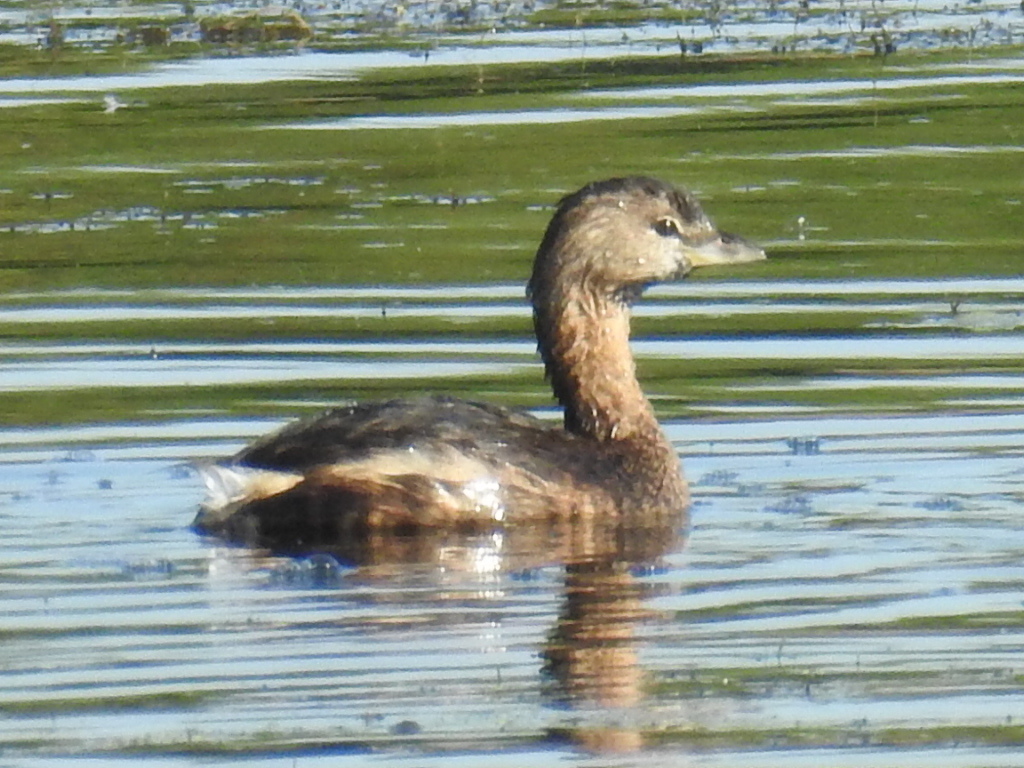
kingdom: Animalia
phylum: Chordata
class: Aves
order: Podicipediformes
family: Podicipedidae
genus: Podilymbus
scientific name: Podilymbus podiceps
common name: Pied-billed grebe
